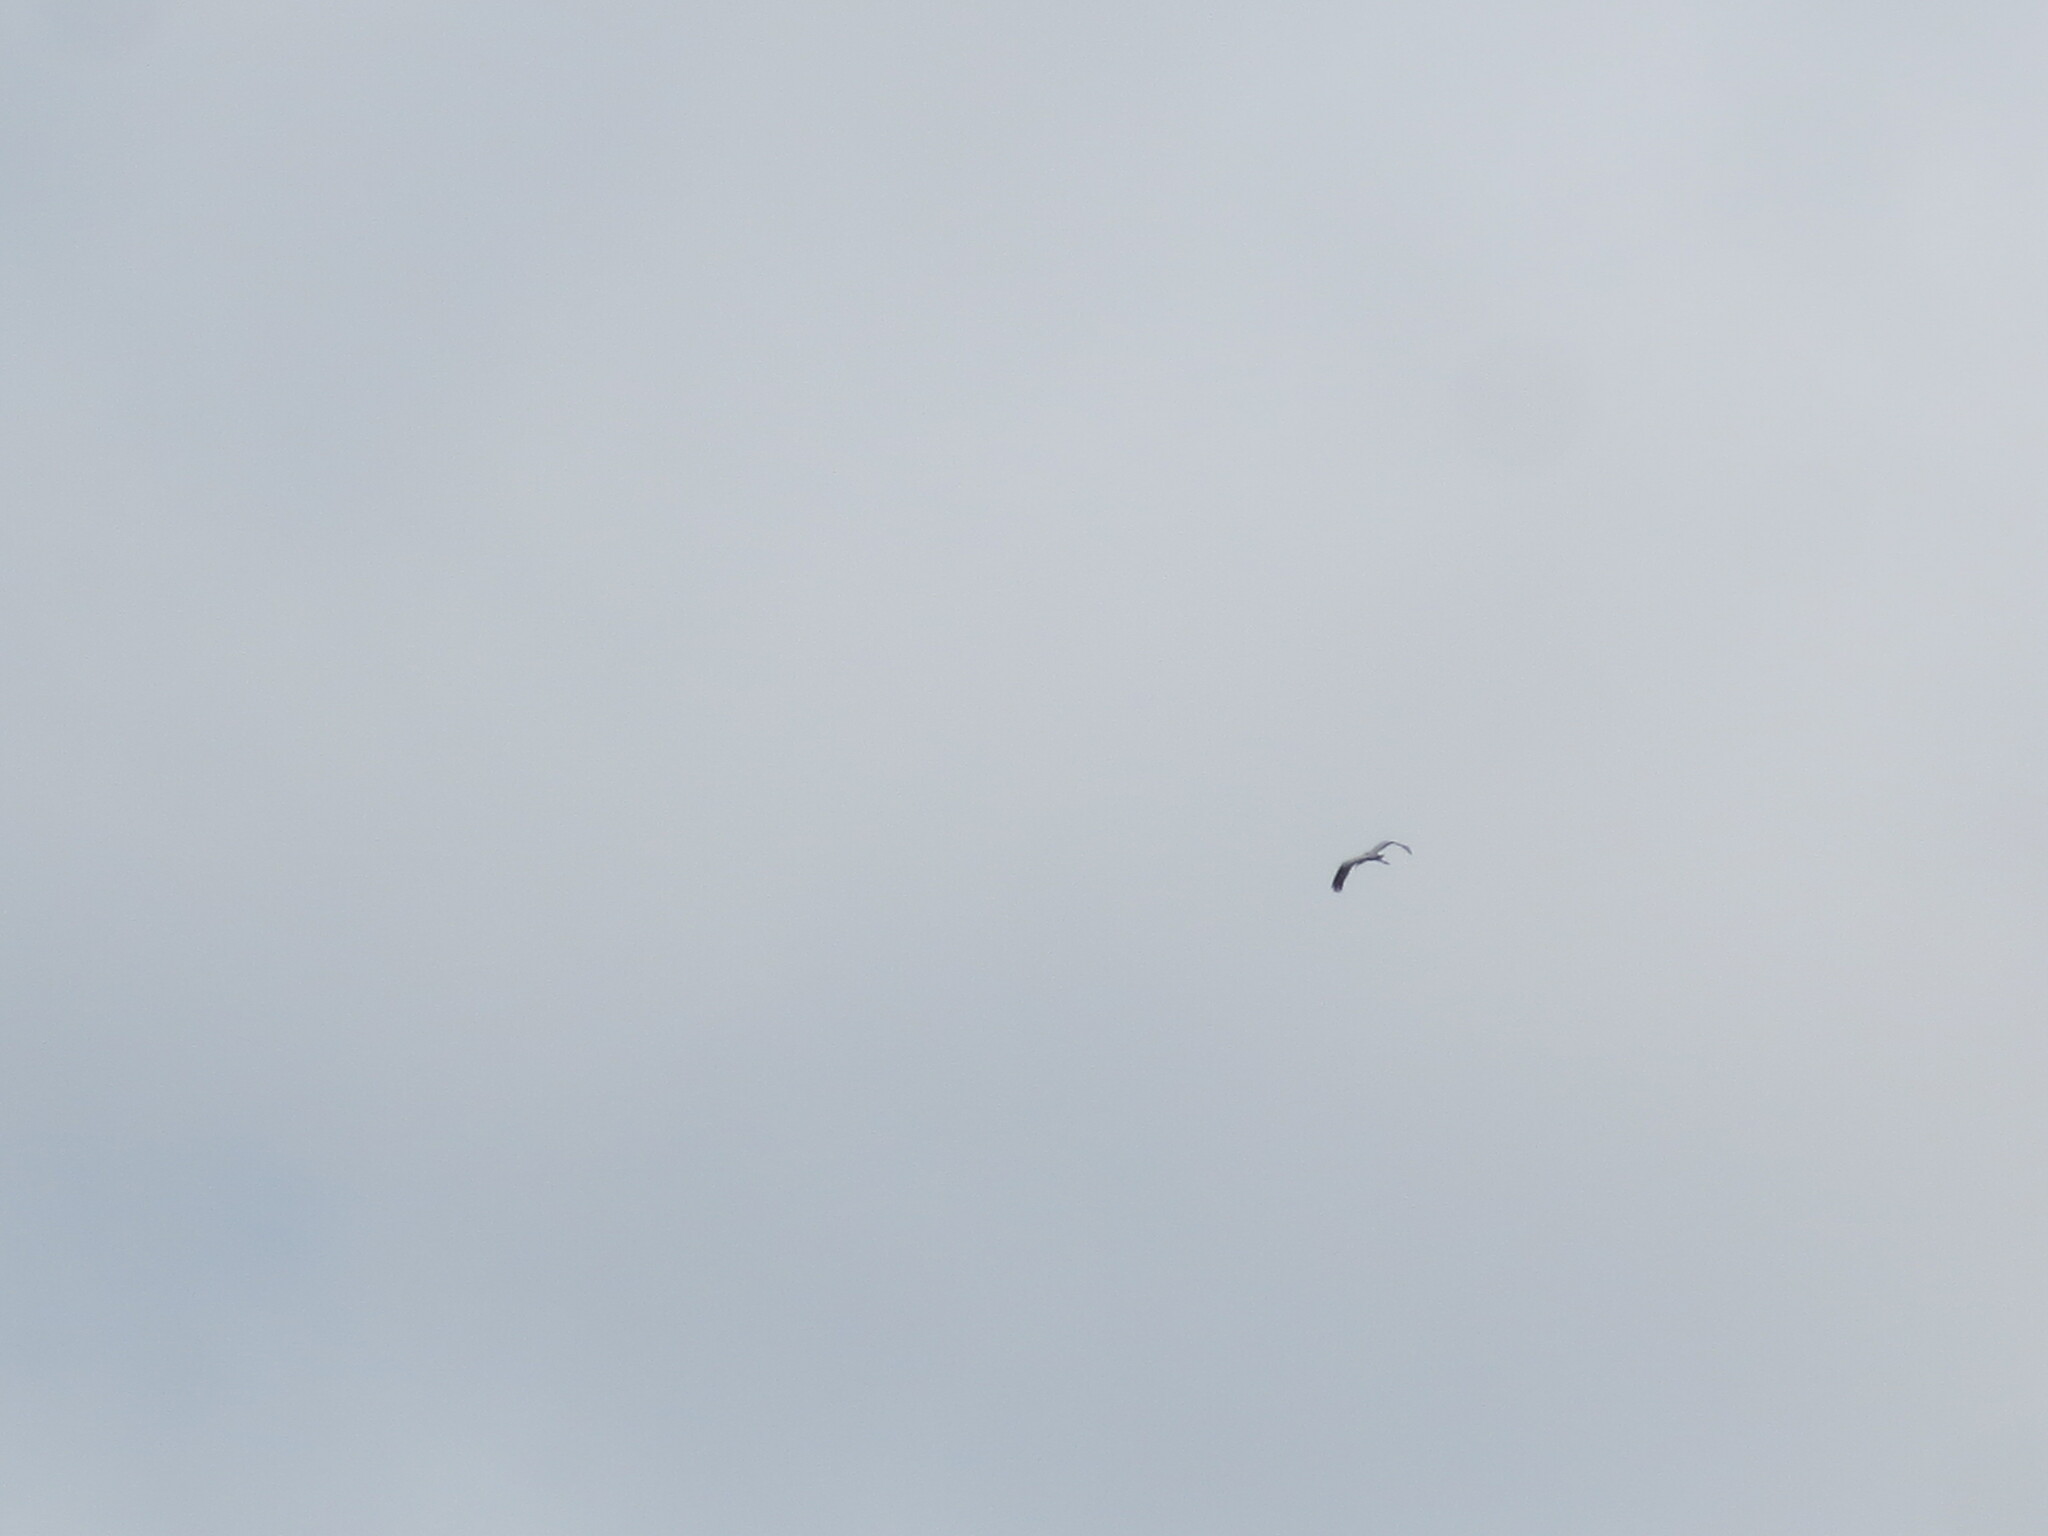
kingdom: Animalia
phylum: Chordata
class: Aves
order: Ciconiiformes
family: Ciconiidae
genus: Mycteria
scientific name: Mycteria americana
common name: Wood stork
